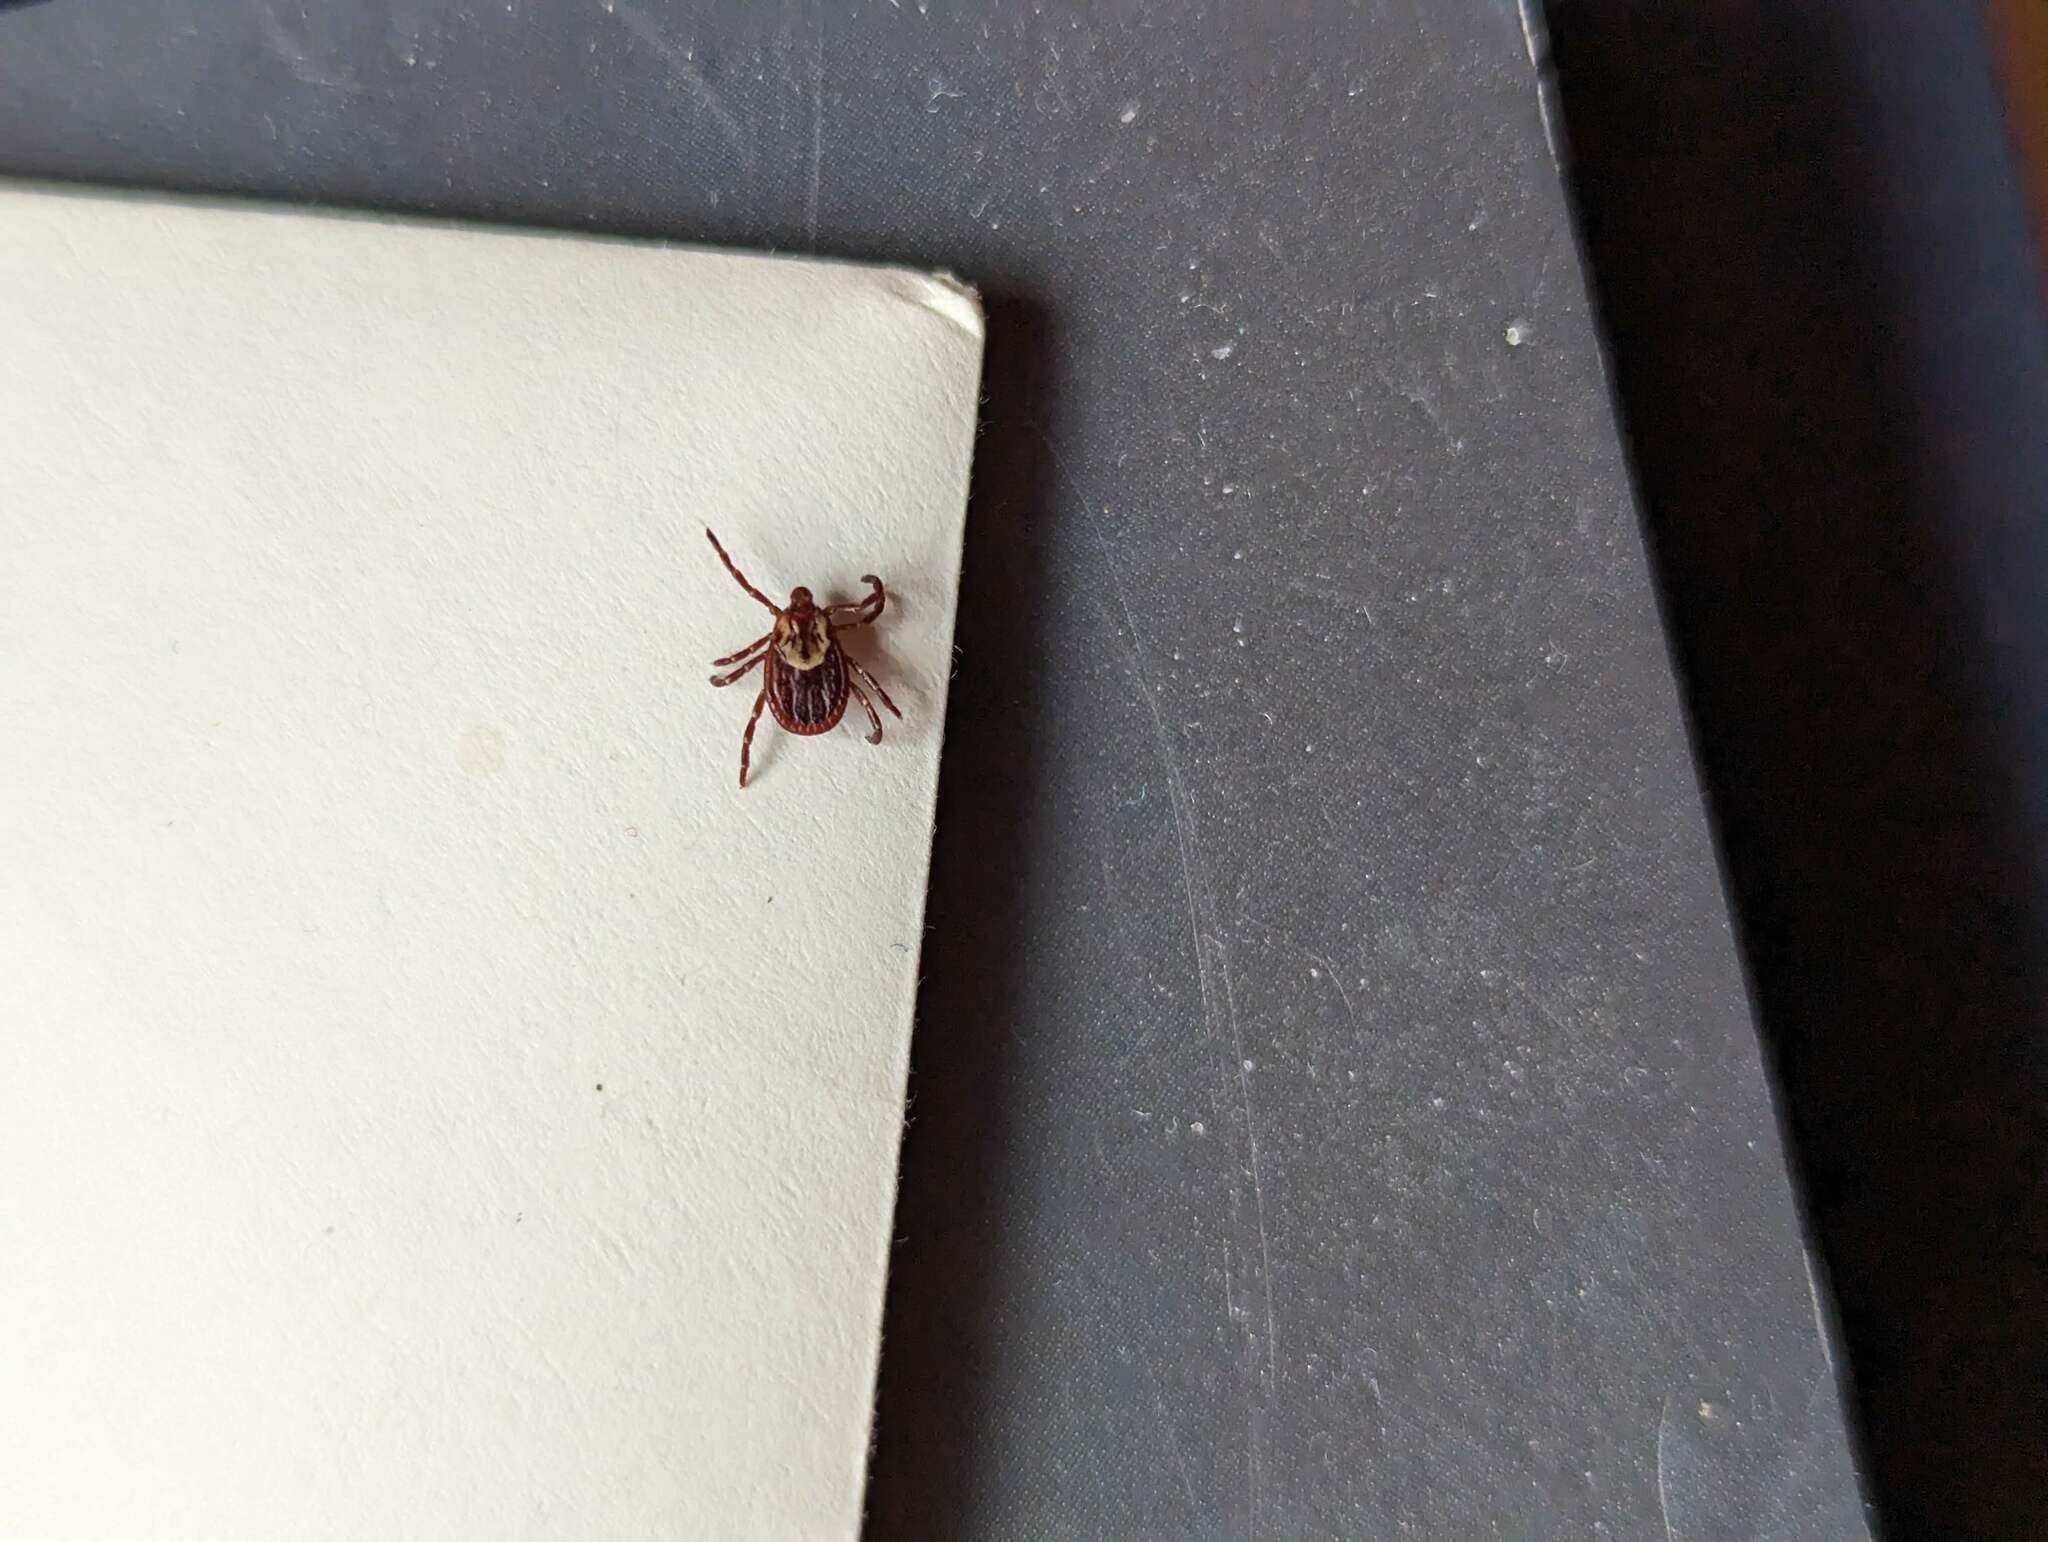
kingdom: Animalia
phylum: Arthropoda
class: Arachnida
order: Ixodida
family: Ixodidae
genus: Dermacentor
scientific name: Dermacentor variabilis
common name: American dog tick
